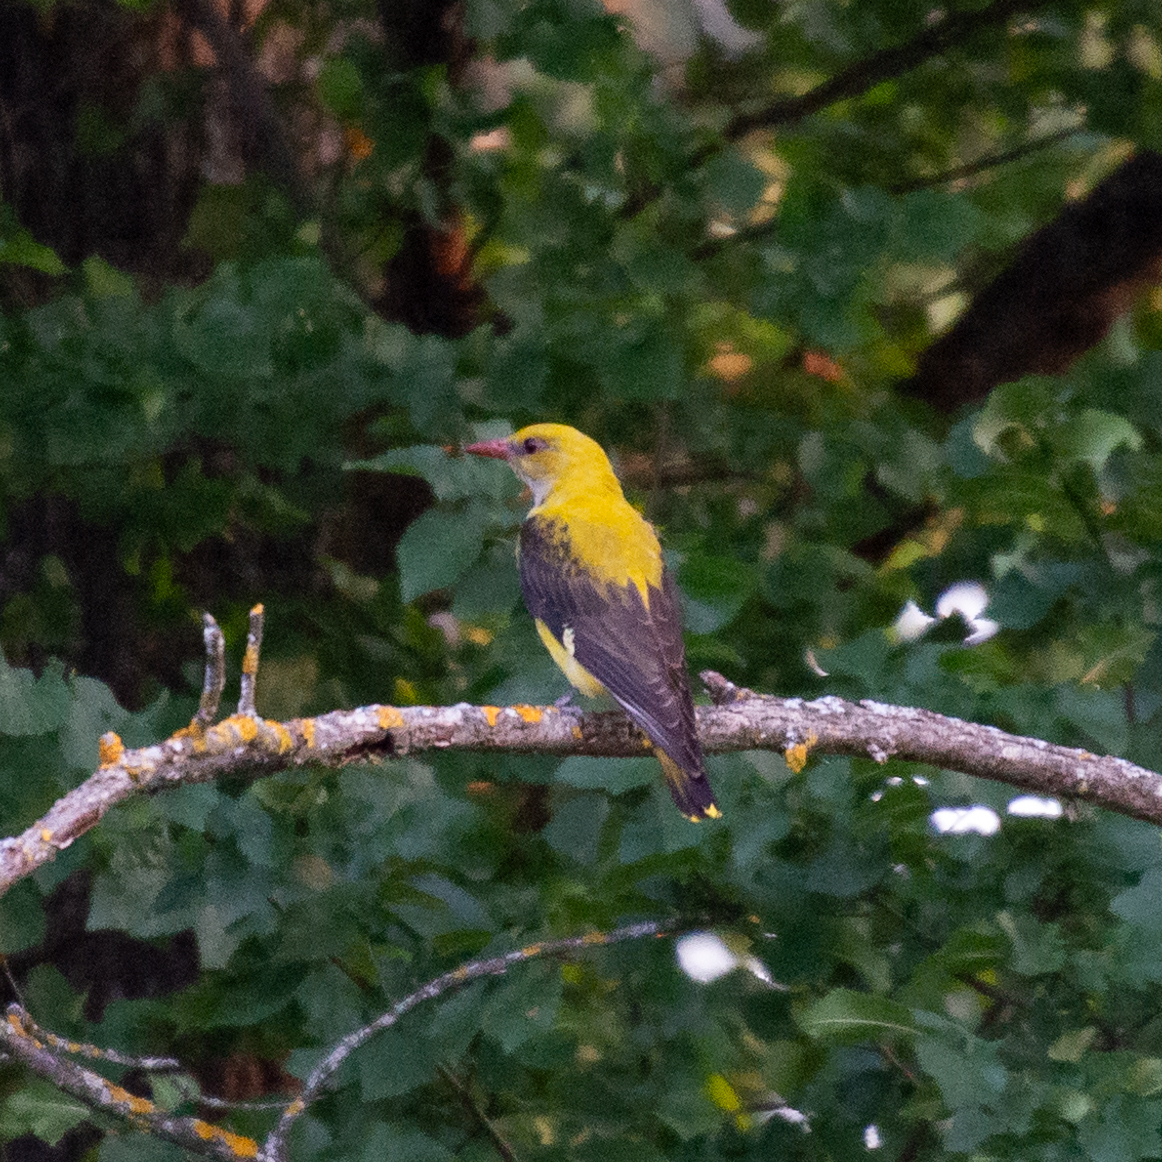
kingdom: Animalia
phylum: Chordata
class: Aves
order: Passeriformes
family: Oriolidae
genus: Oriolus
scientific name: Oriolus oriolus
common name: Eurasian golden oriole
